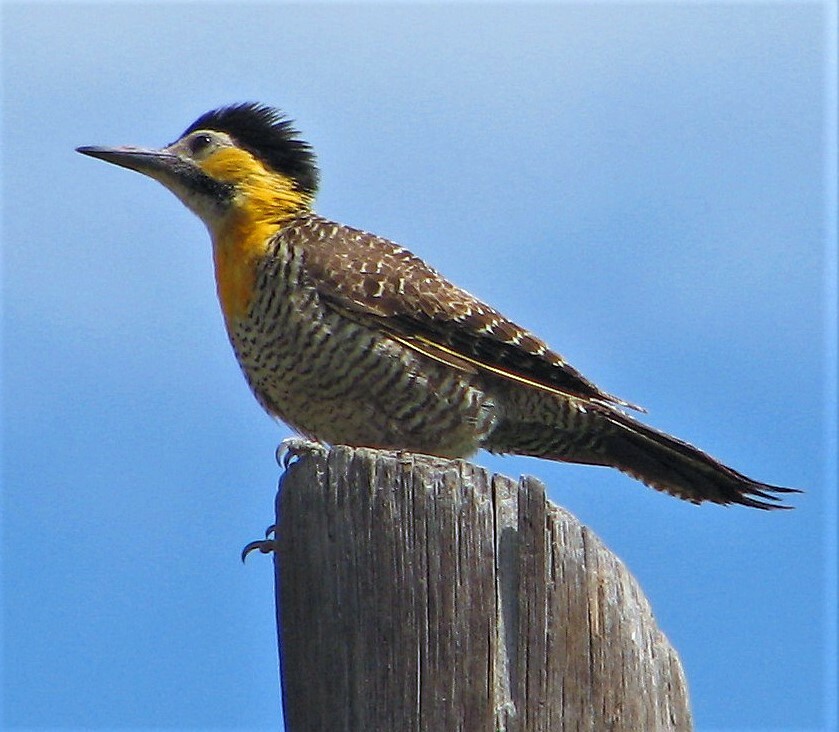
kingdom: Animalia
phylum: Chordata
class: Aves
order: Piciformes
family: Picidae
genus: Colaptes
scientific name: Colaptes campestris
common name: Campo flicker
